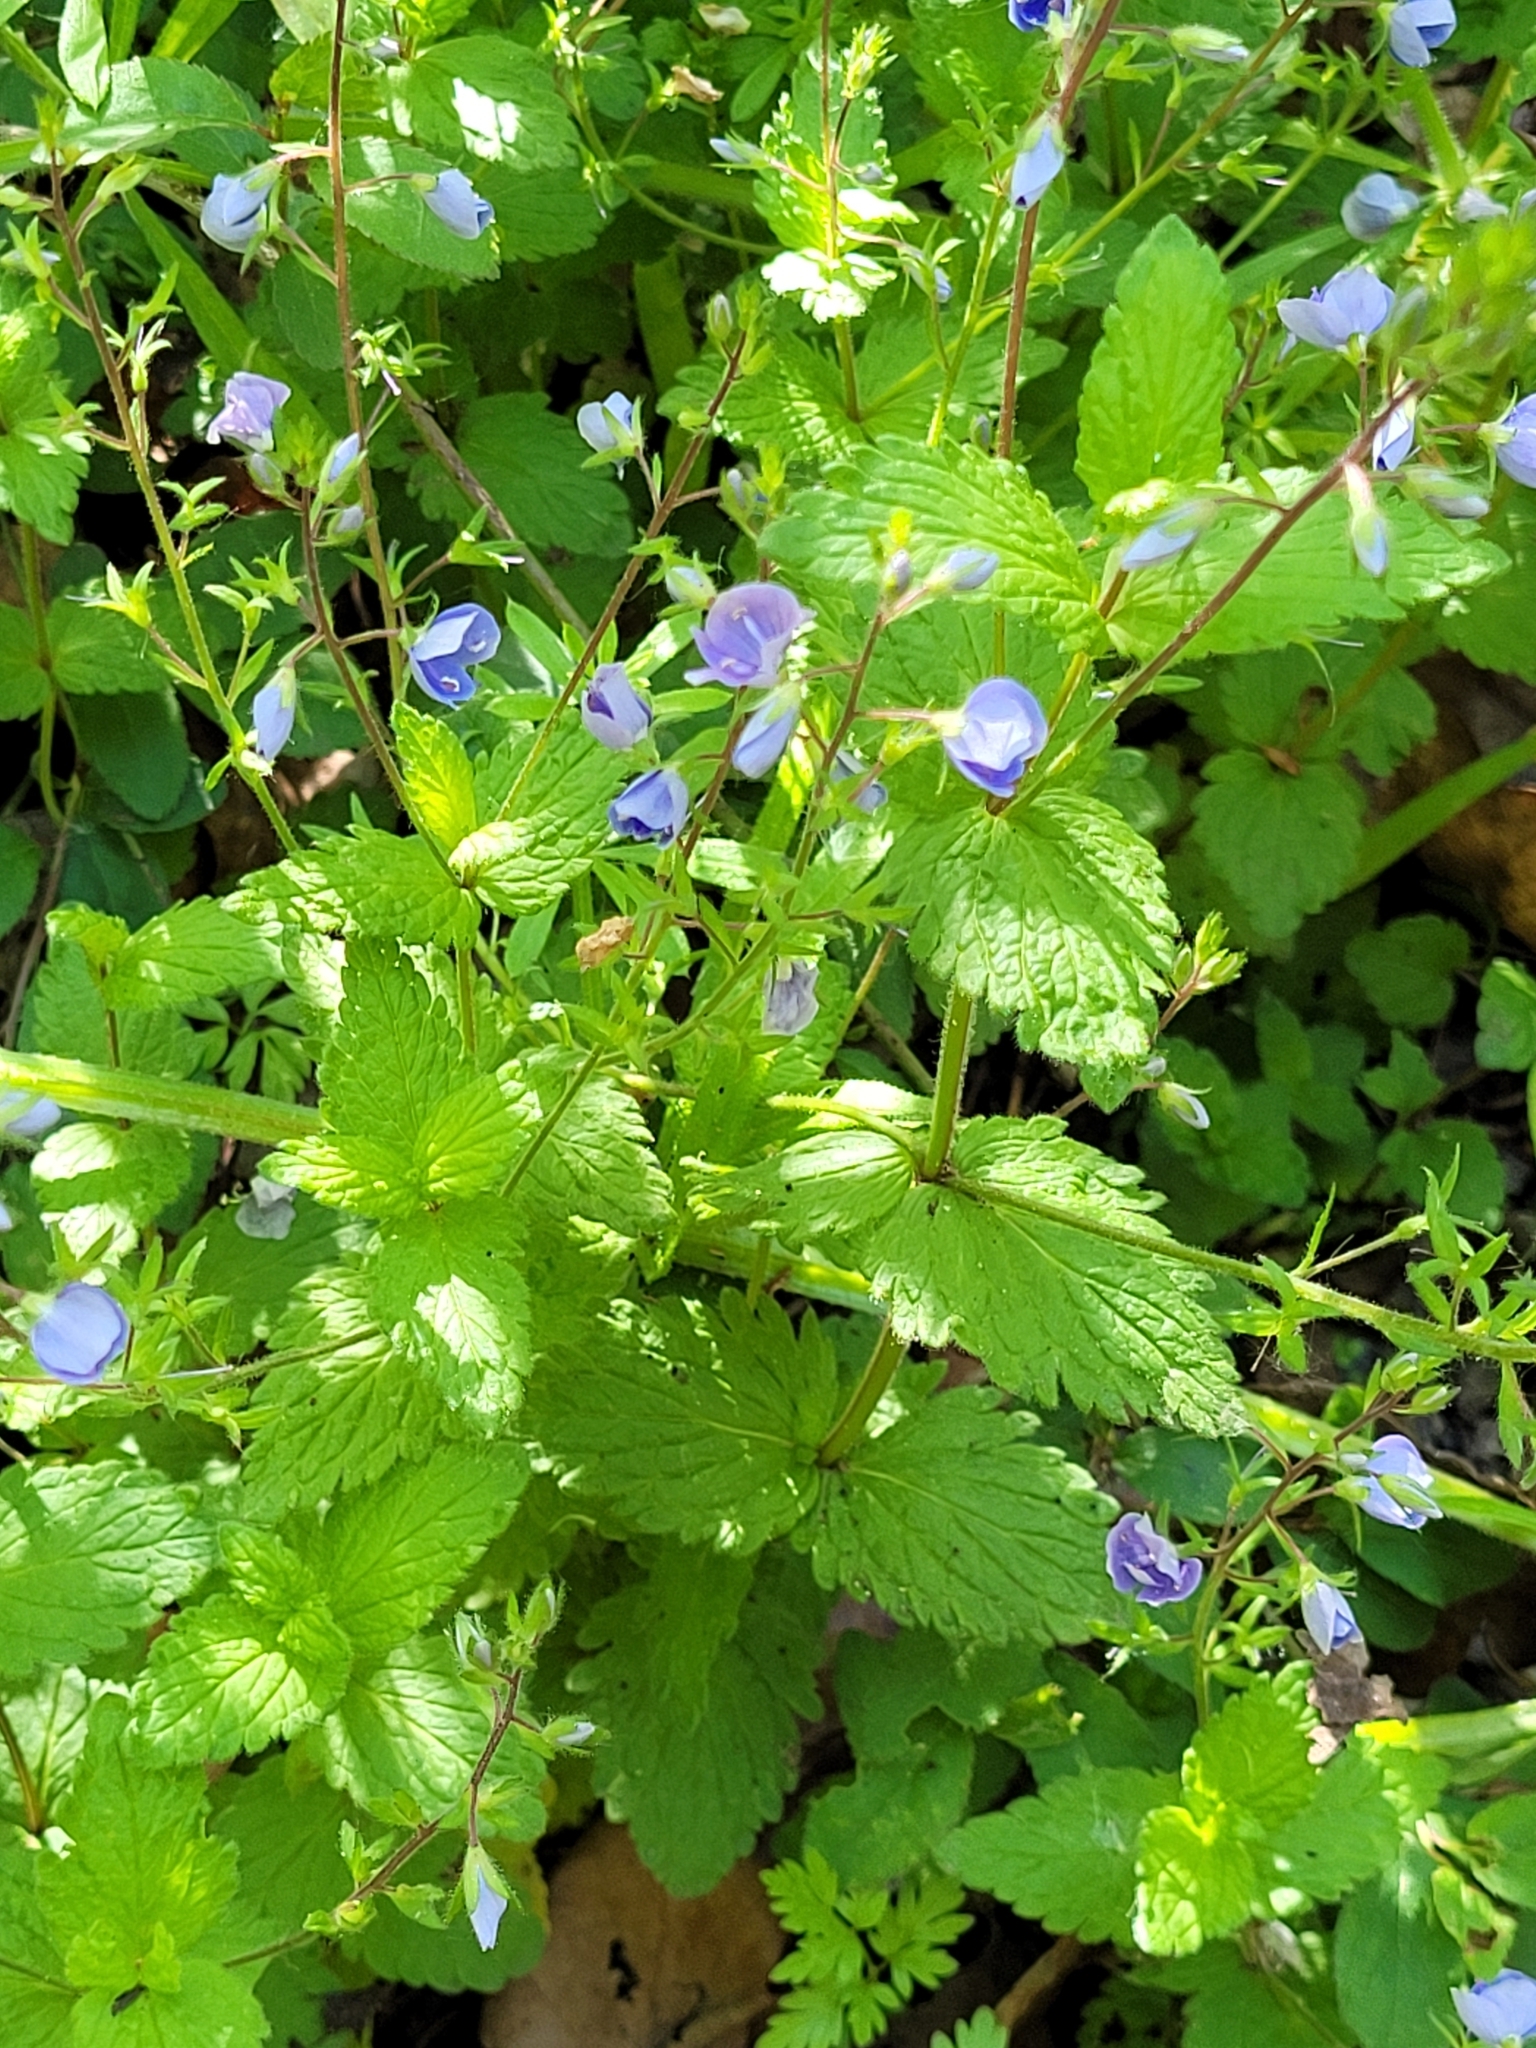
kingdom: Plantae
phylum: Tracheophyta
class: Magnoliopsida
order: Lamiales
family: Plantaginaceae
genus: Veronica
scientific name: Veronica chamaedrys
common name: Germander speedwell
